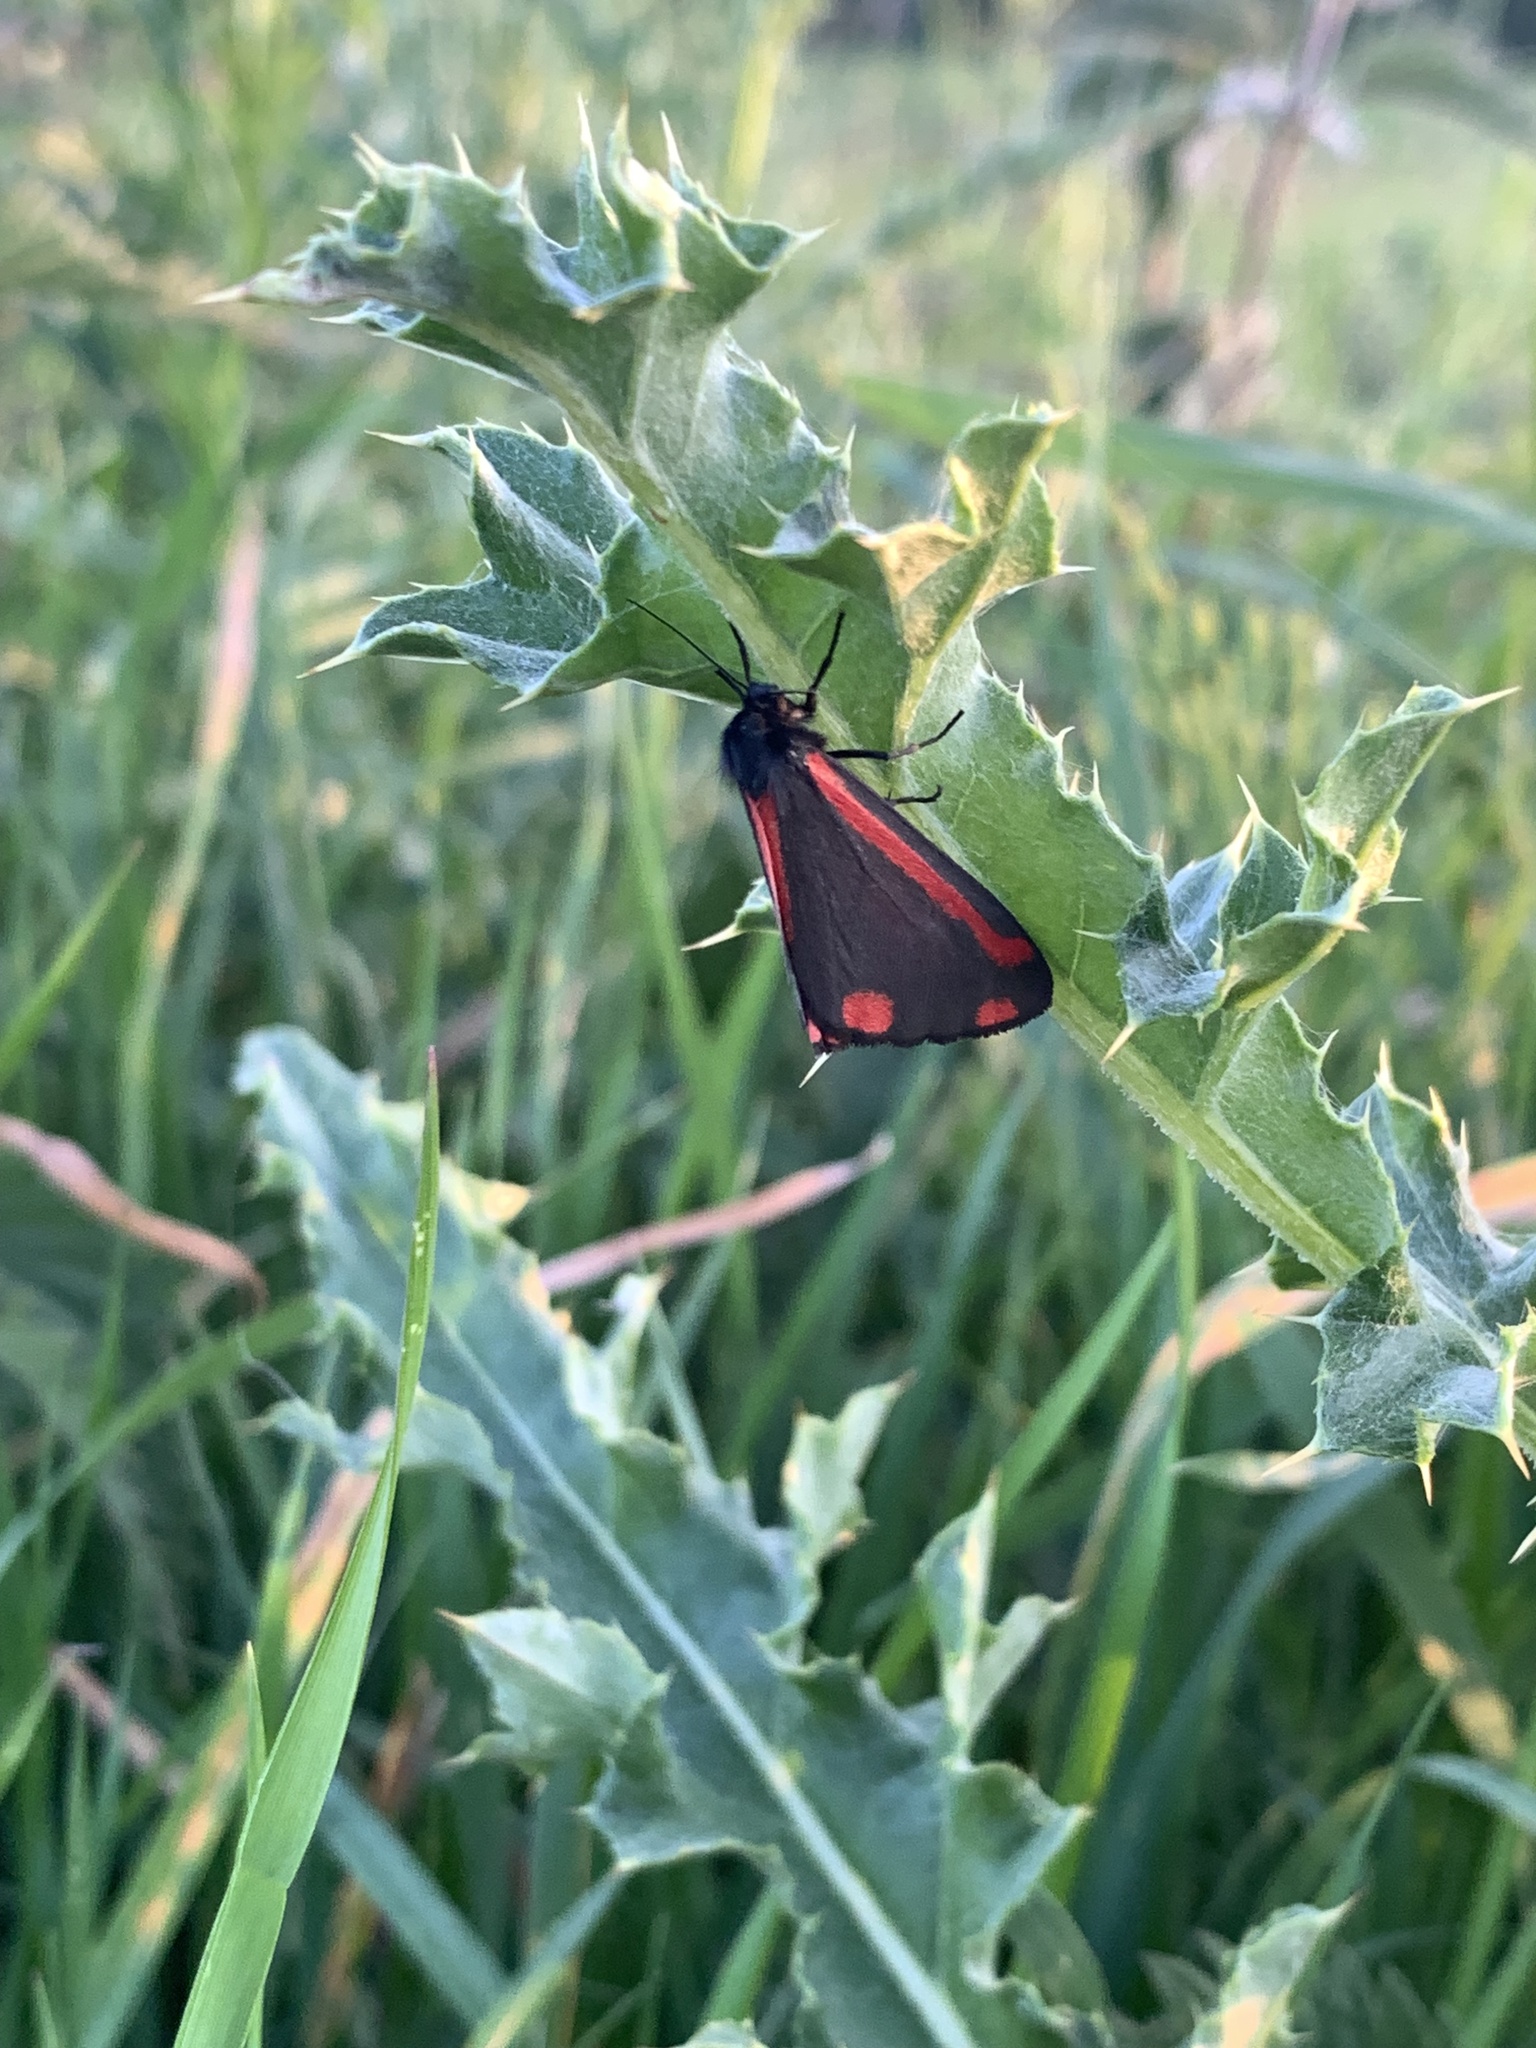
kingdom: Animalia
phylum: Arthropoda
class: Insecta
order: Lepidoptera
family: Erebidae
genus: Tyria
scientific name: Tyria jacobaeae
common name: Cinnabar
